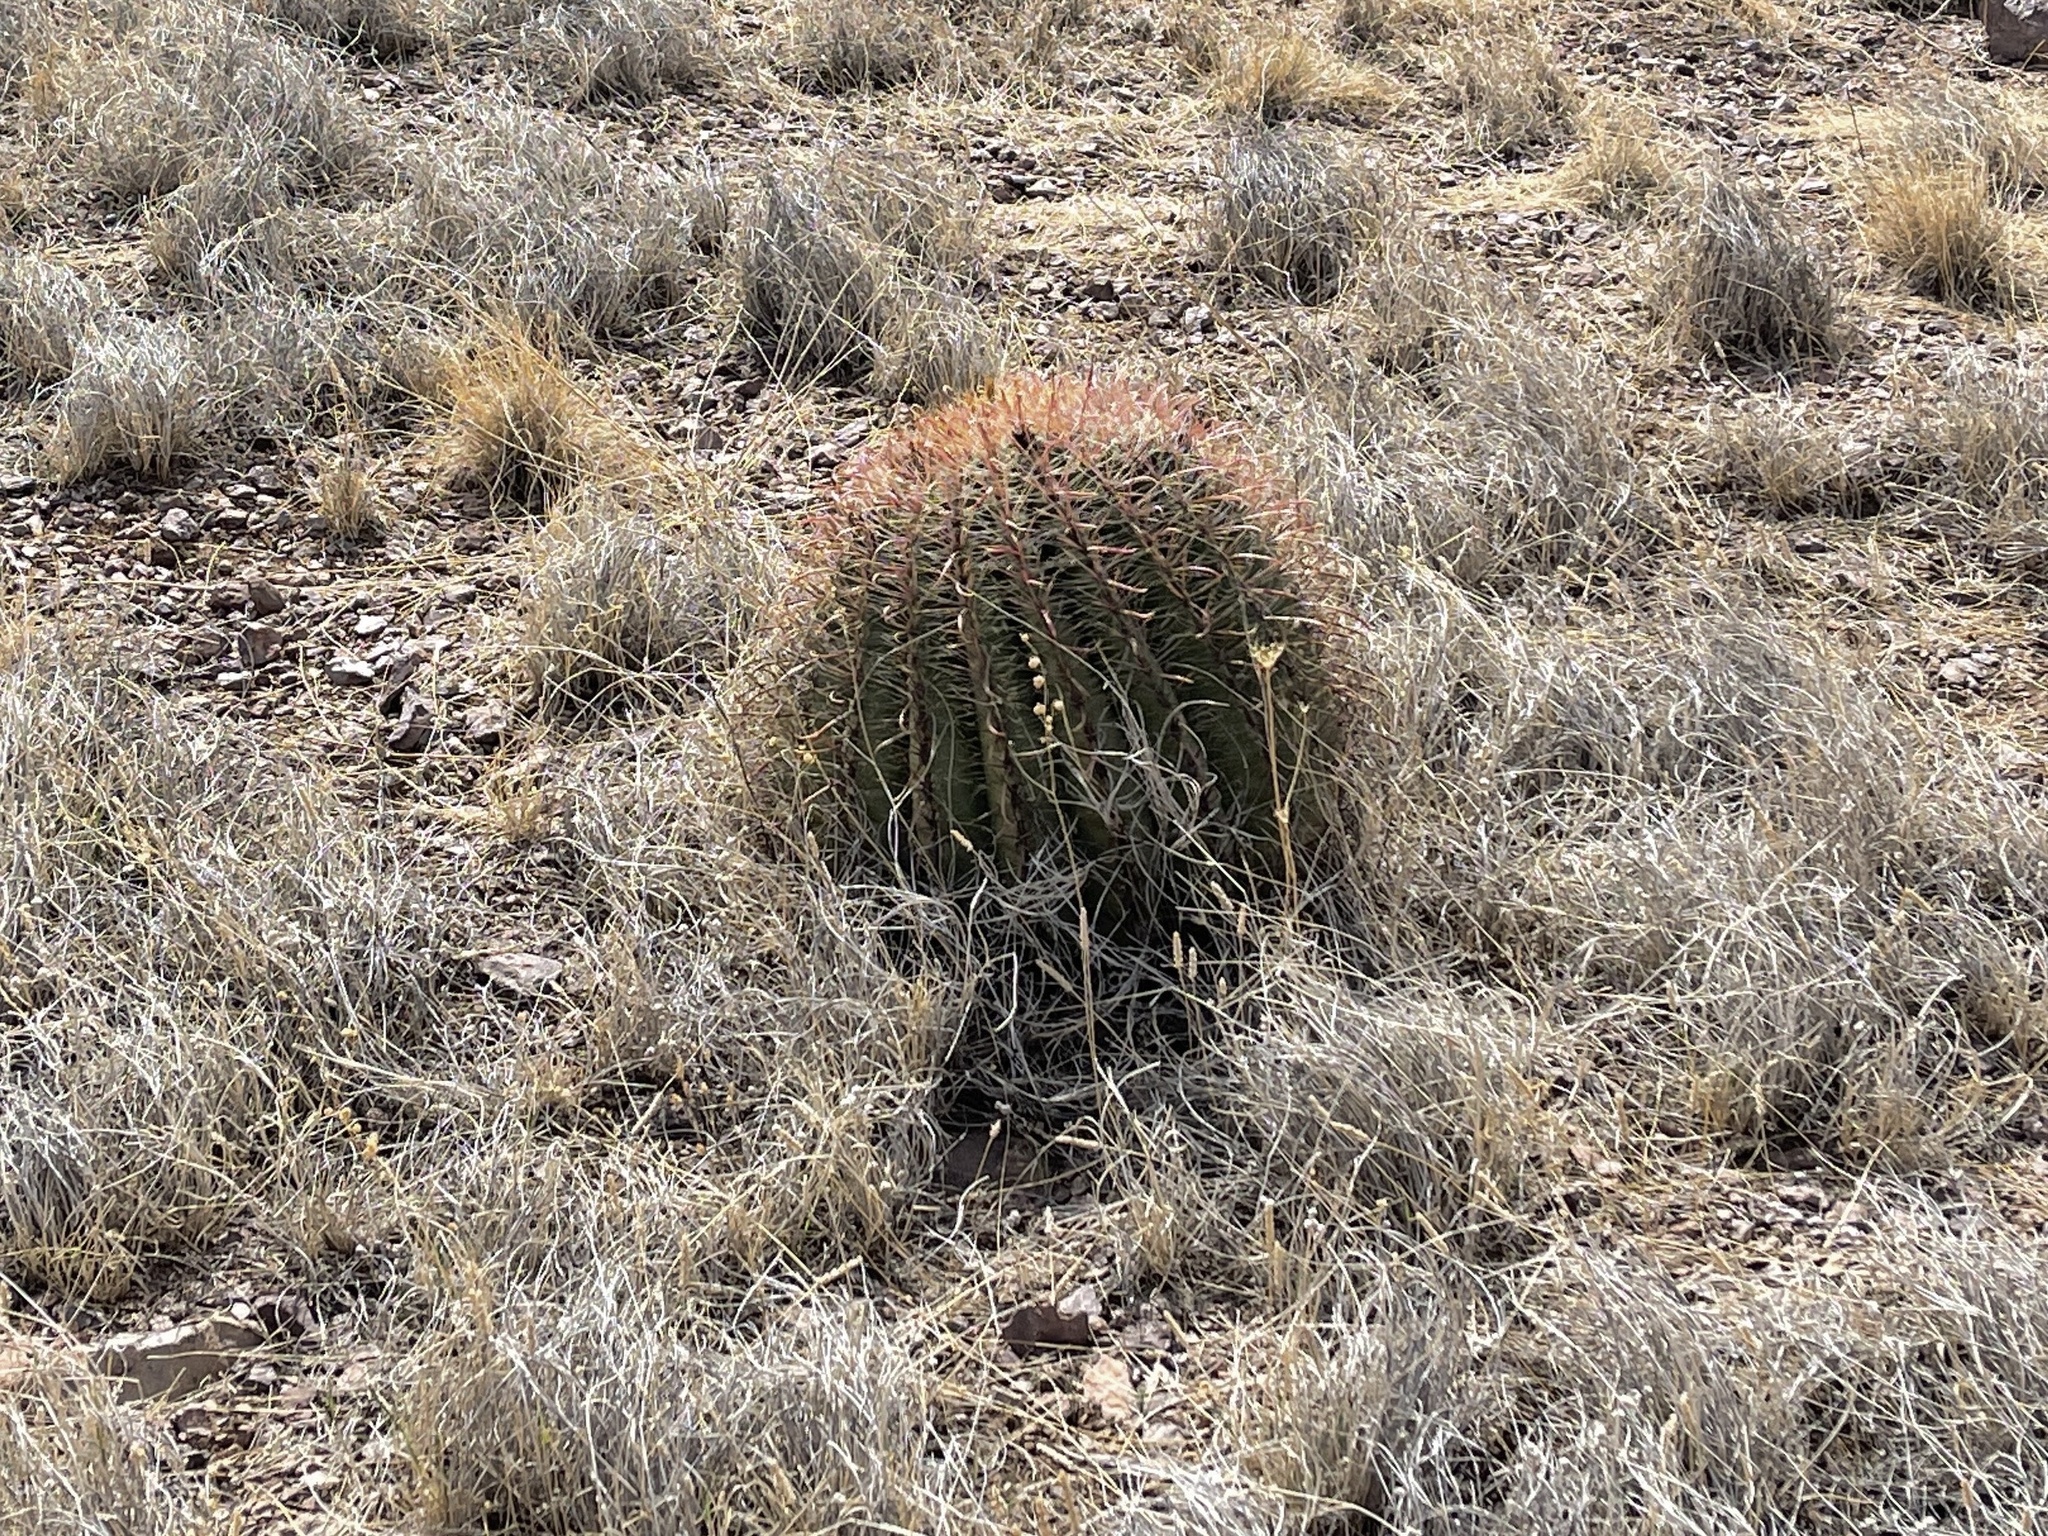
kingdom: Plantae
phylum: Tracheophyta
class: Magnoliopsida
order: Caryophyllales
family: Cactaceae
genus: Ferocactus
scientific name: Ferocactus wislizeni
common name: Candy barrel cactus
